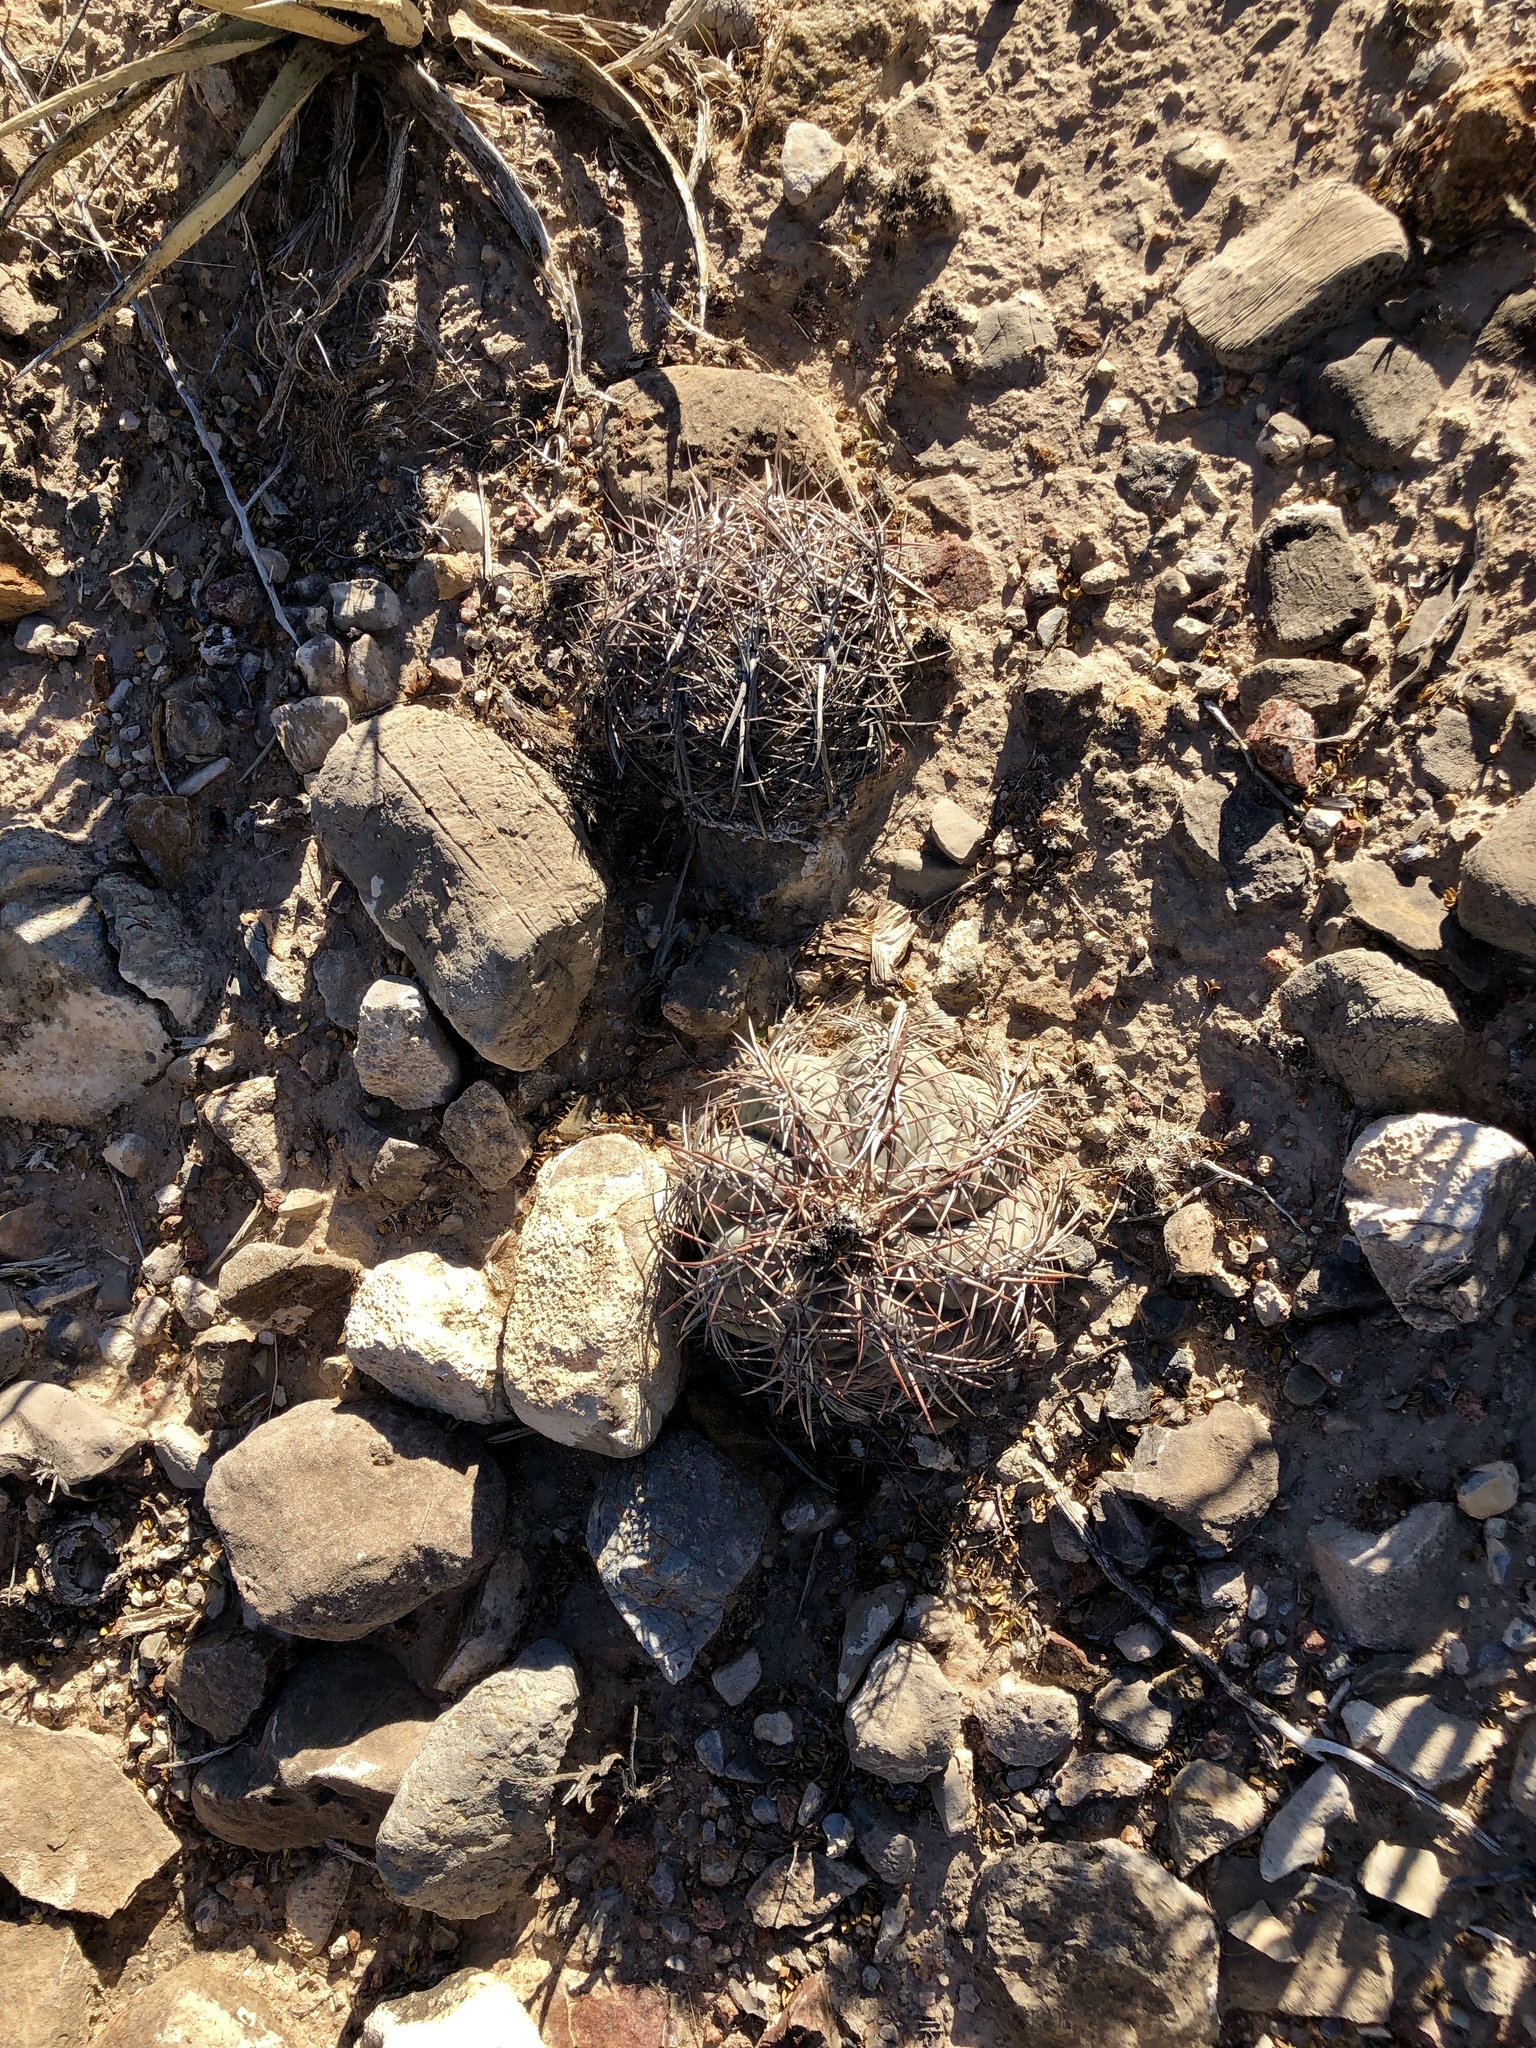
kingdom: Plantae
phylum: Tracheophyta
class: Magnoliopsida
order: Caryophyllales
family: Cactaceae
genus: Echinocactus
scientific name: Echinocactus horizonthalonius
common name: Devilshead
